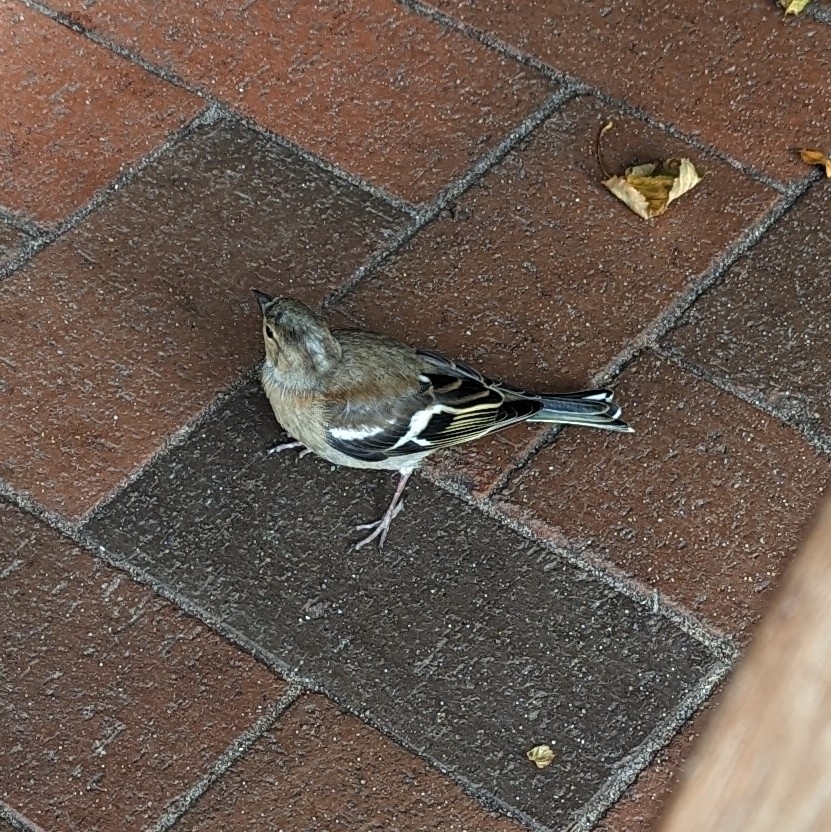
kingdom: Animalia
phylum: Chordata
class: Aves
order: Passeriformes
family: Fringillidae
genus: Fringilla
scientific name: Fringilla coelebs
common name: Common chaffinch
